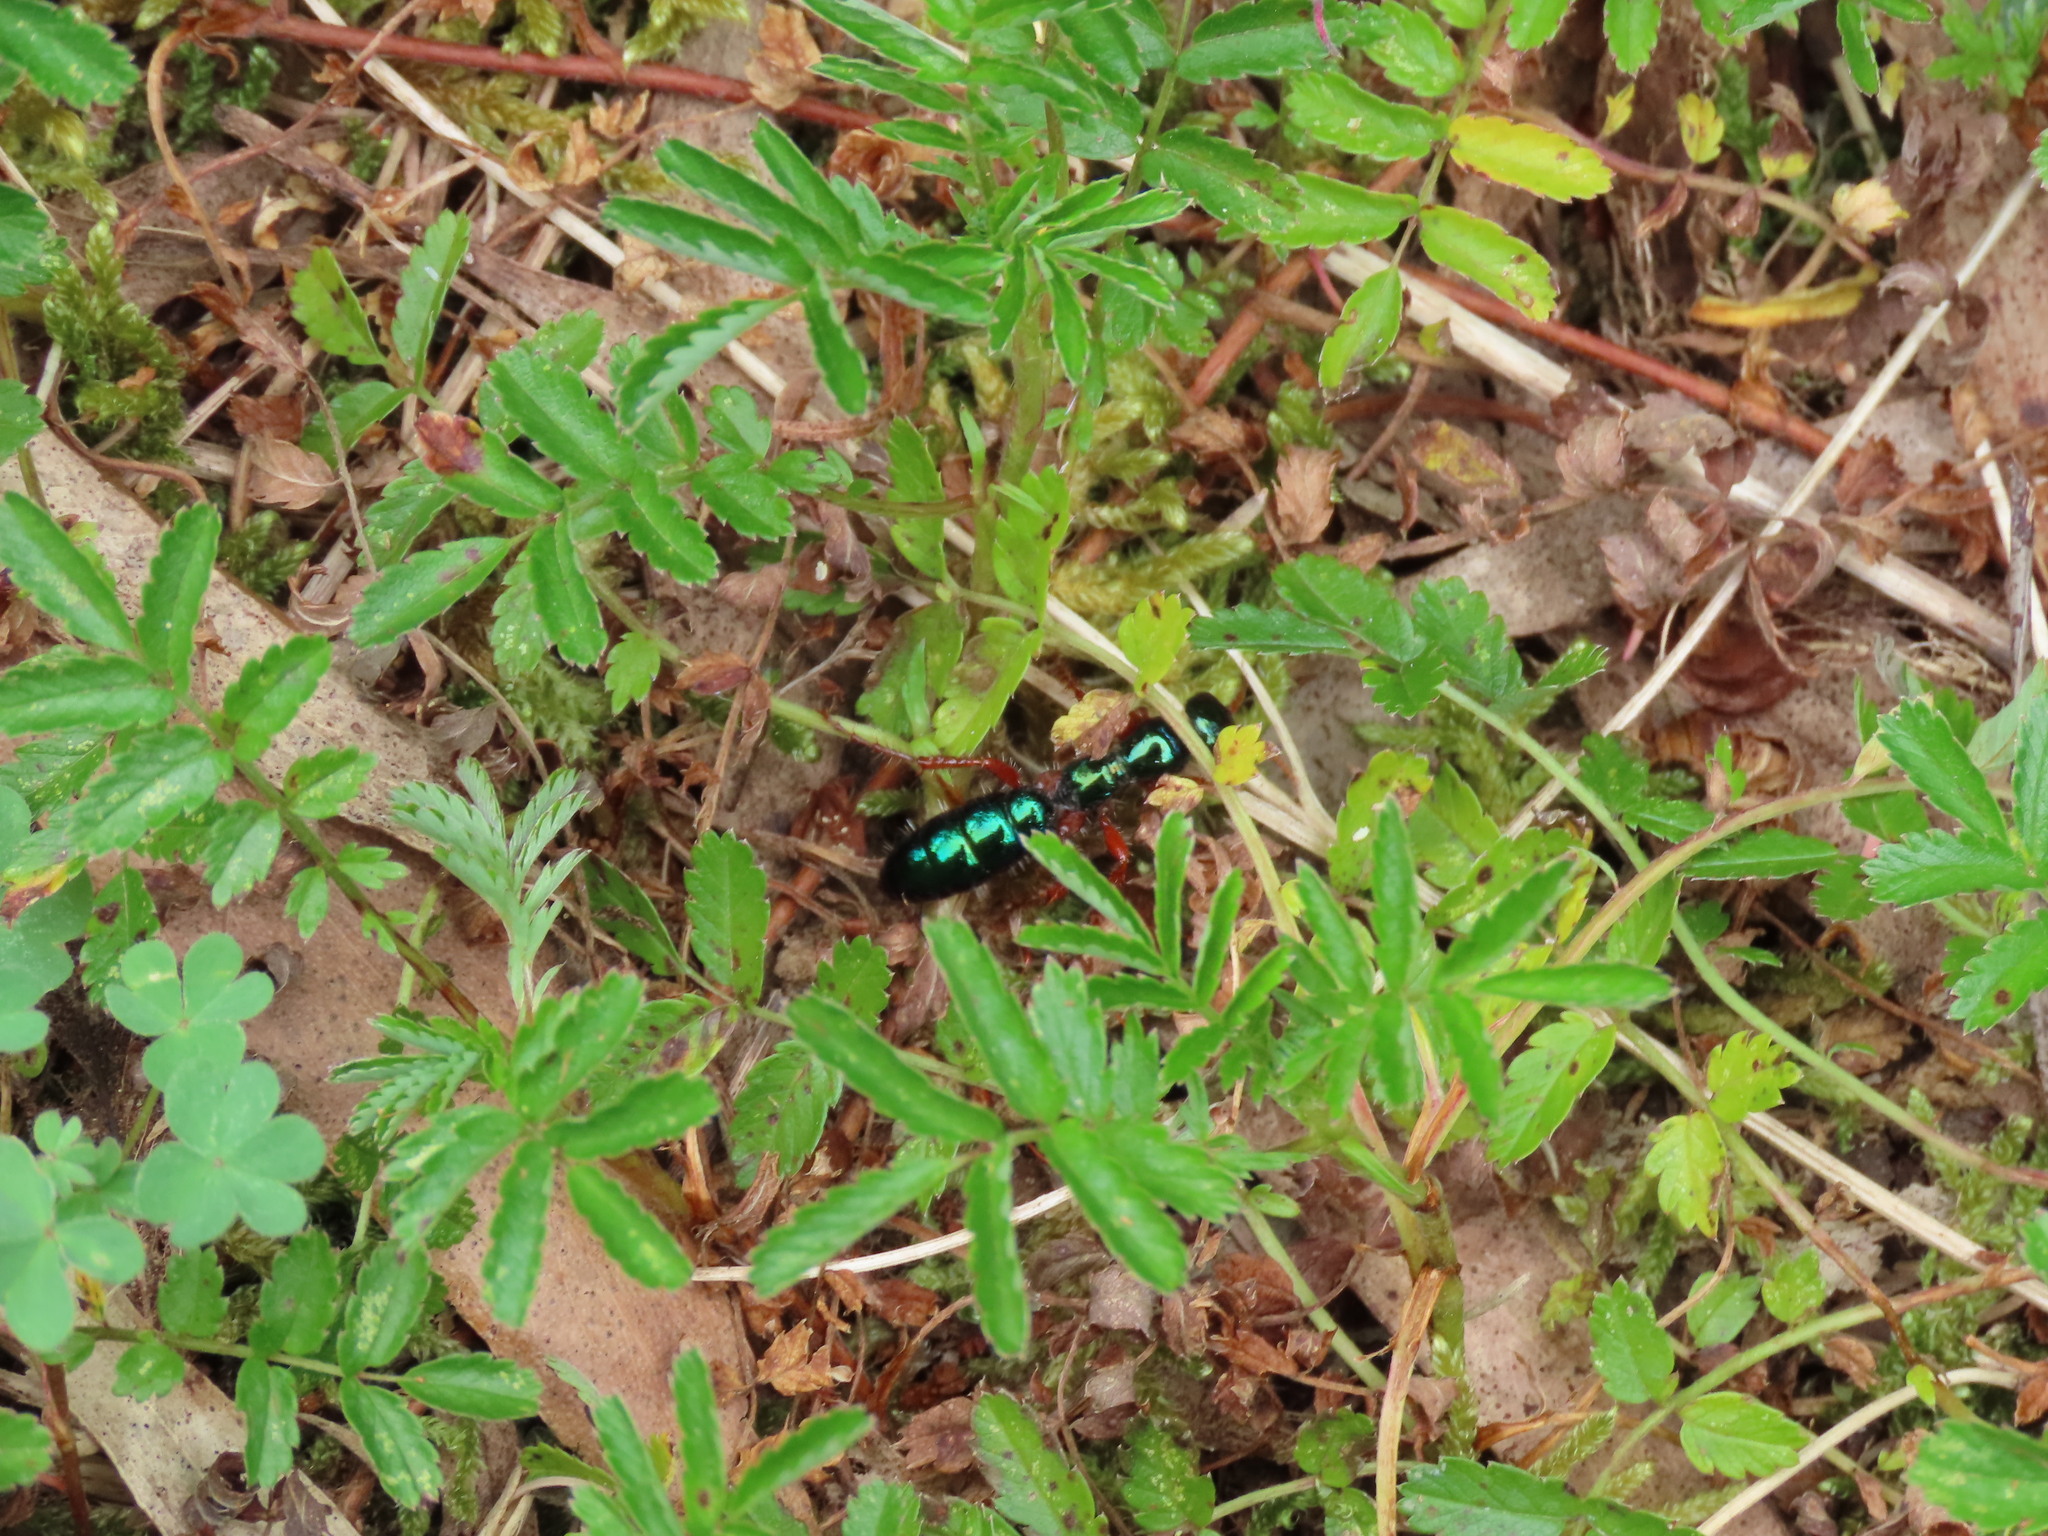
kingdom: Animalia
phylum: Arthropoda
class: Insecta
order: Hymenoptera
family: Tiphiidae
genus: Diamma
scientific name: Diamma
